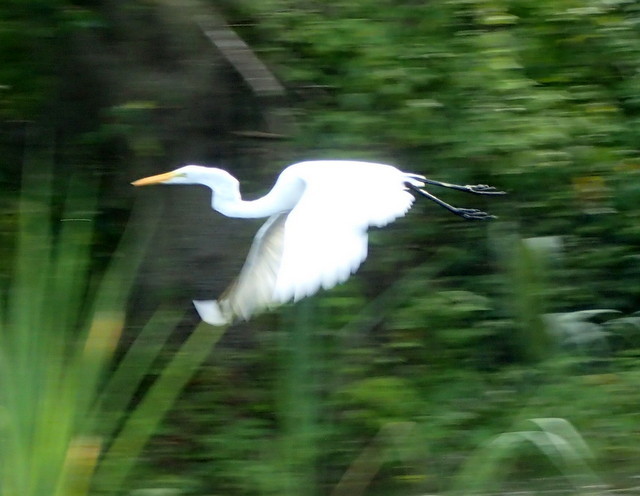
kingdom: Animalia
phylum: Chordata
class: Aves
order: Pelecaniformes
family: Ardeidae
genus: Ardea
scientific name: Ardea alba
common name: Great egret
